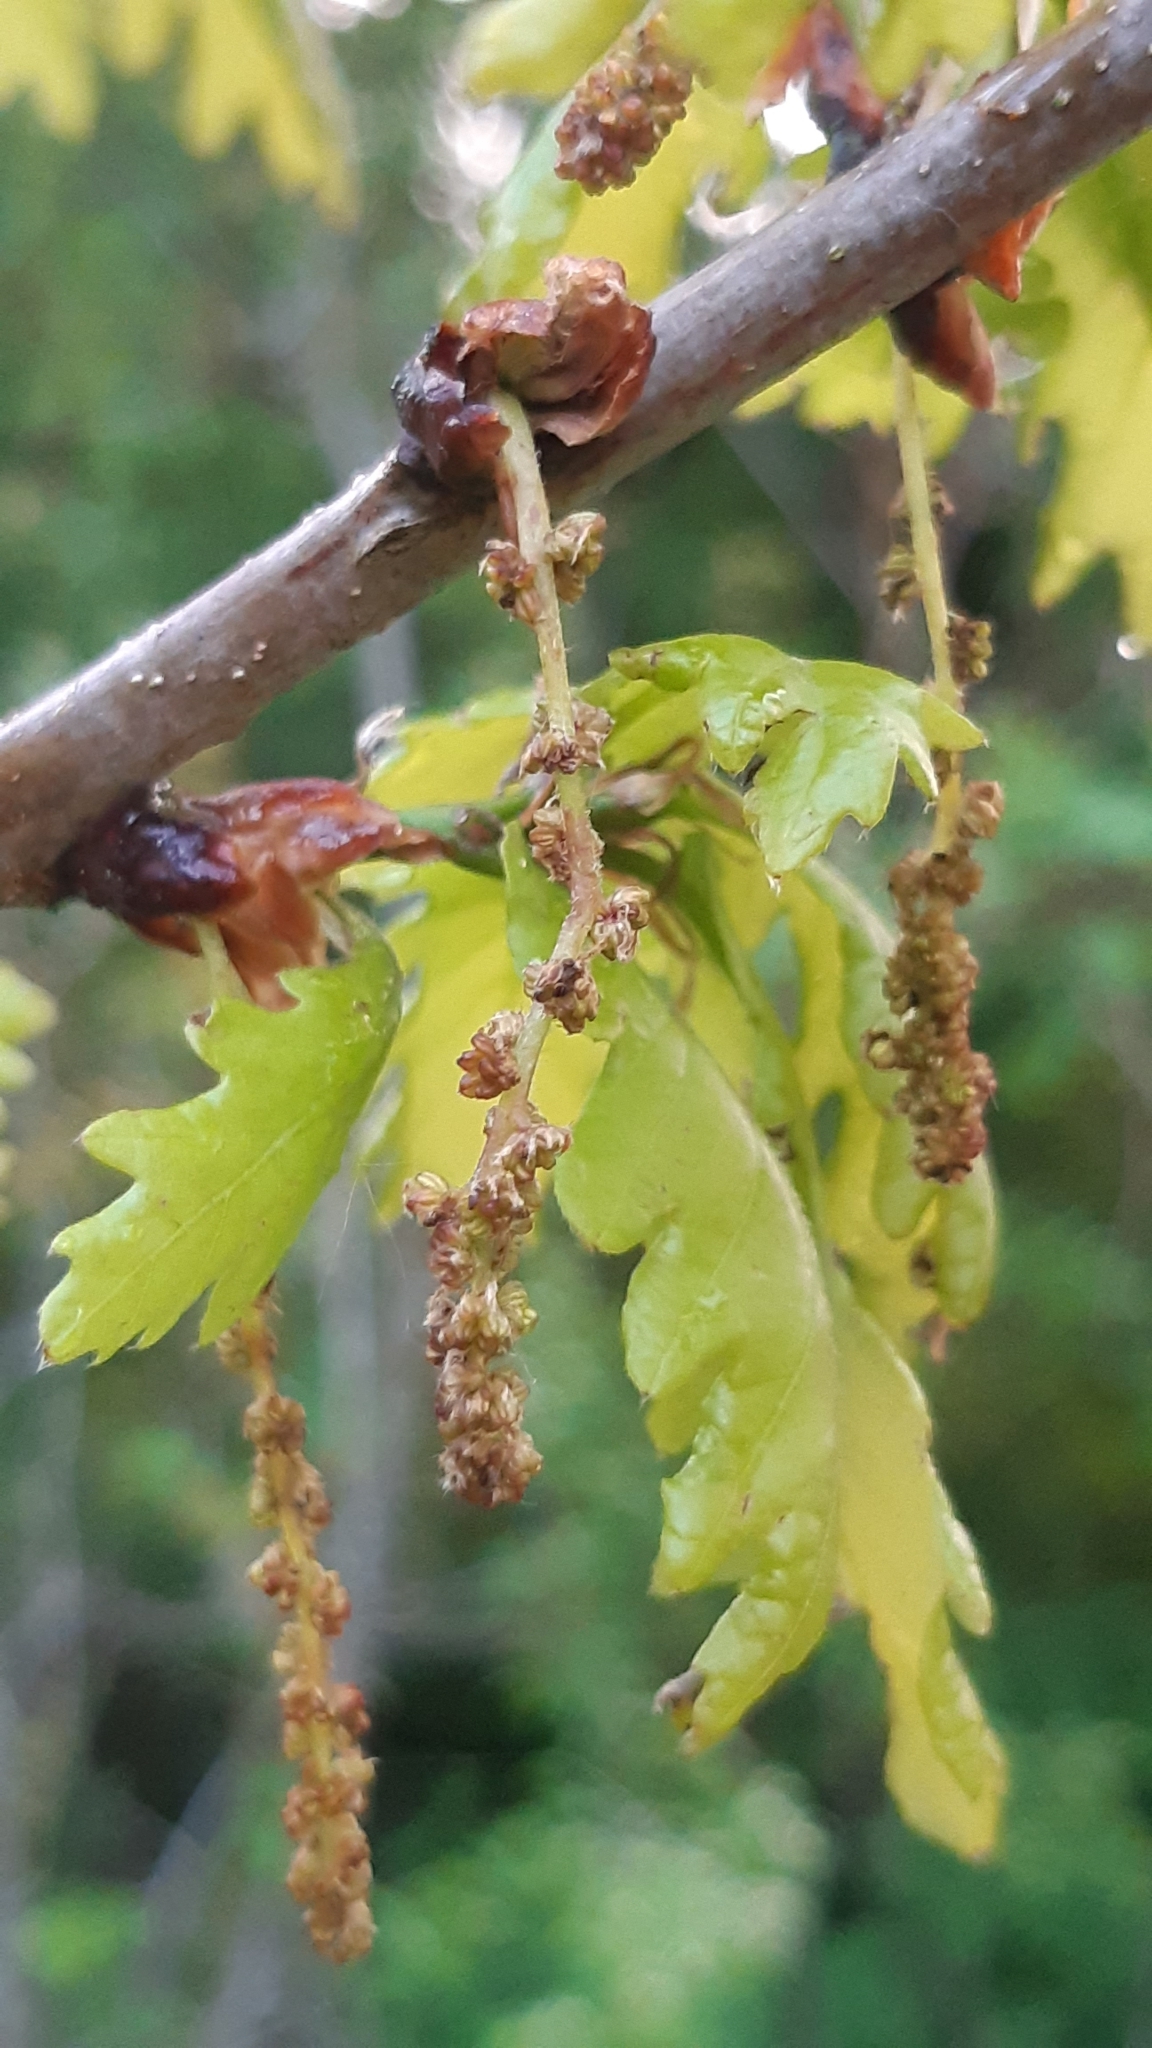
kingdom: Plantae
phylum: Tracheophyta
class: Magnoliopsida
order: Fagales
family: Fagaceae
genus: Quercus
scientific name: Quercus robur
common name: Pedunculate oak
